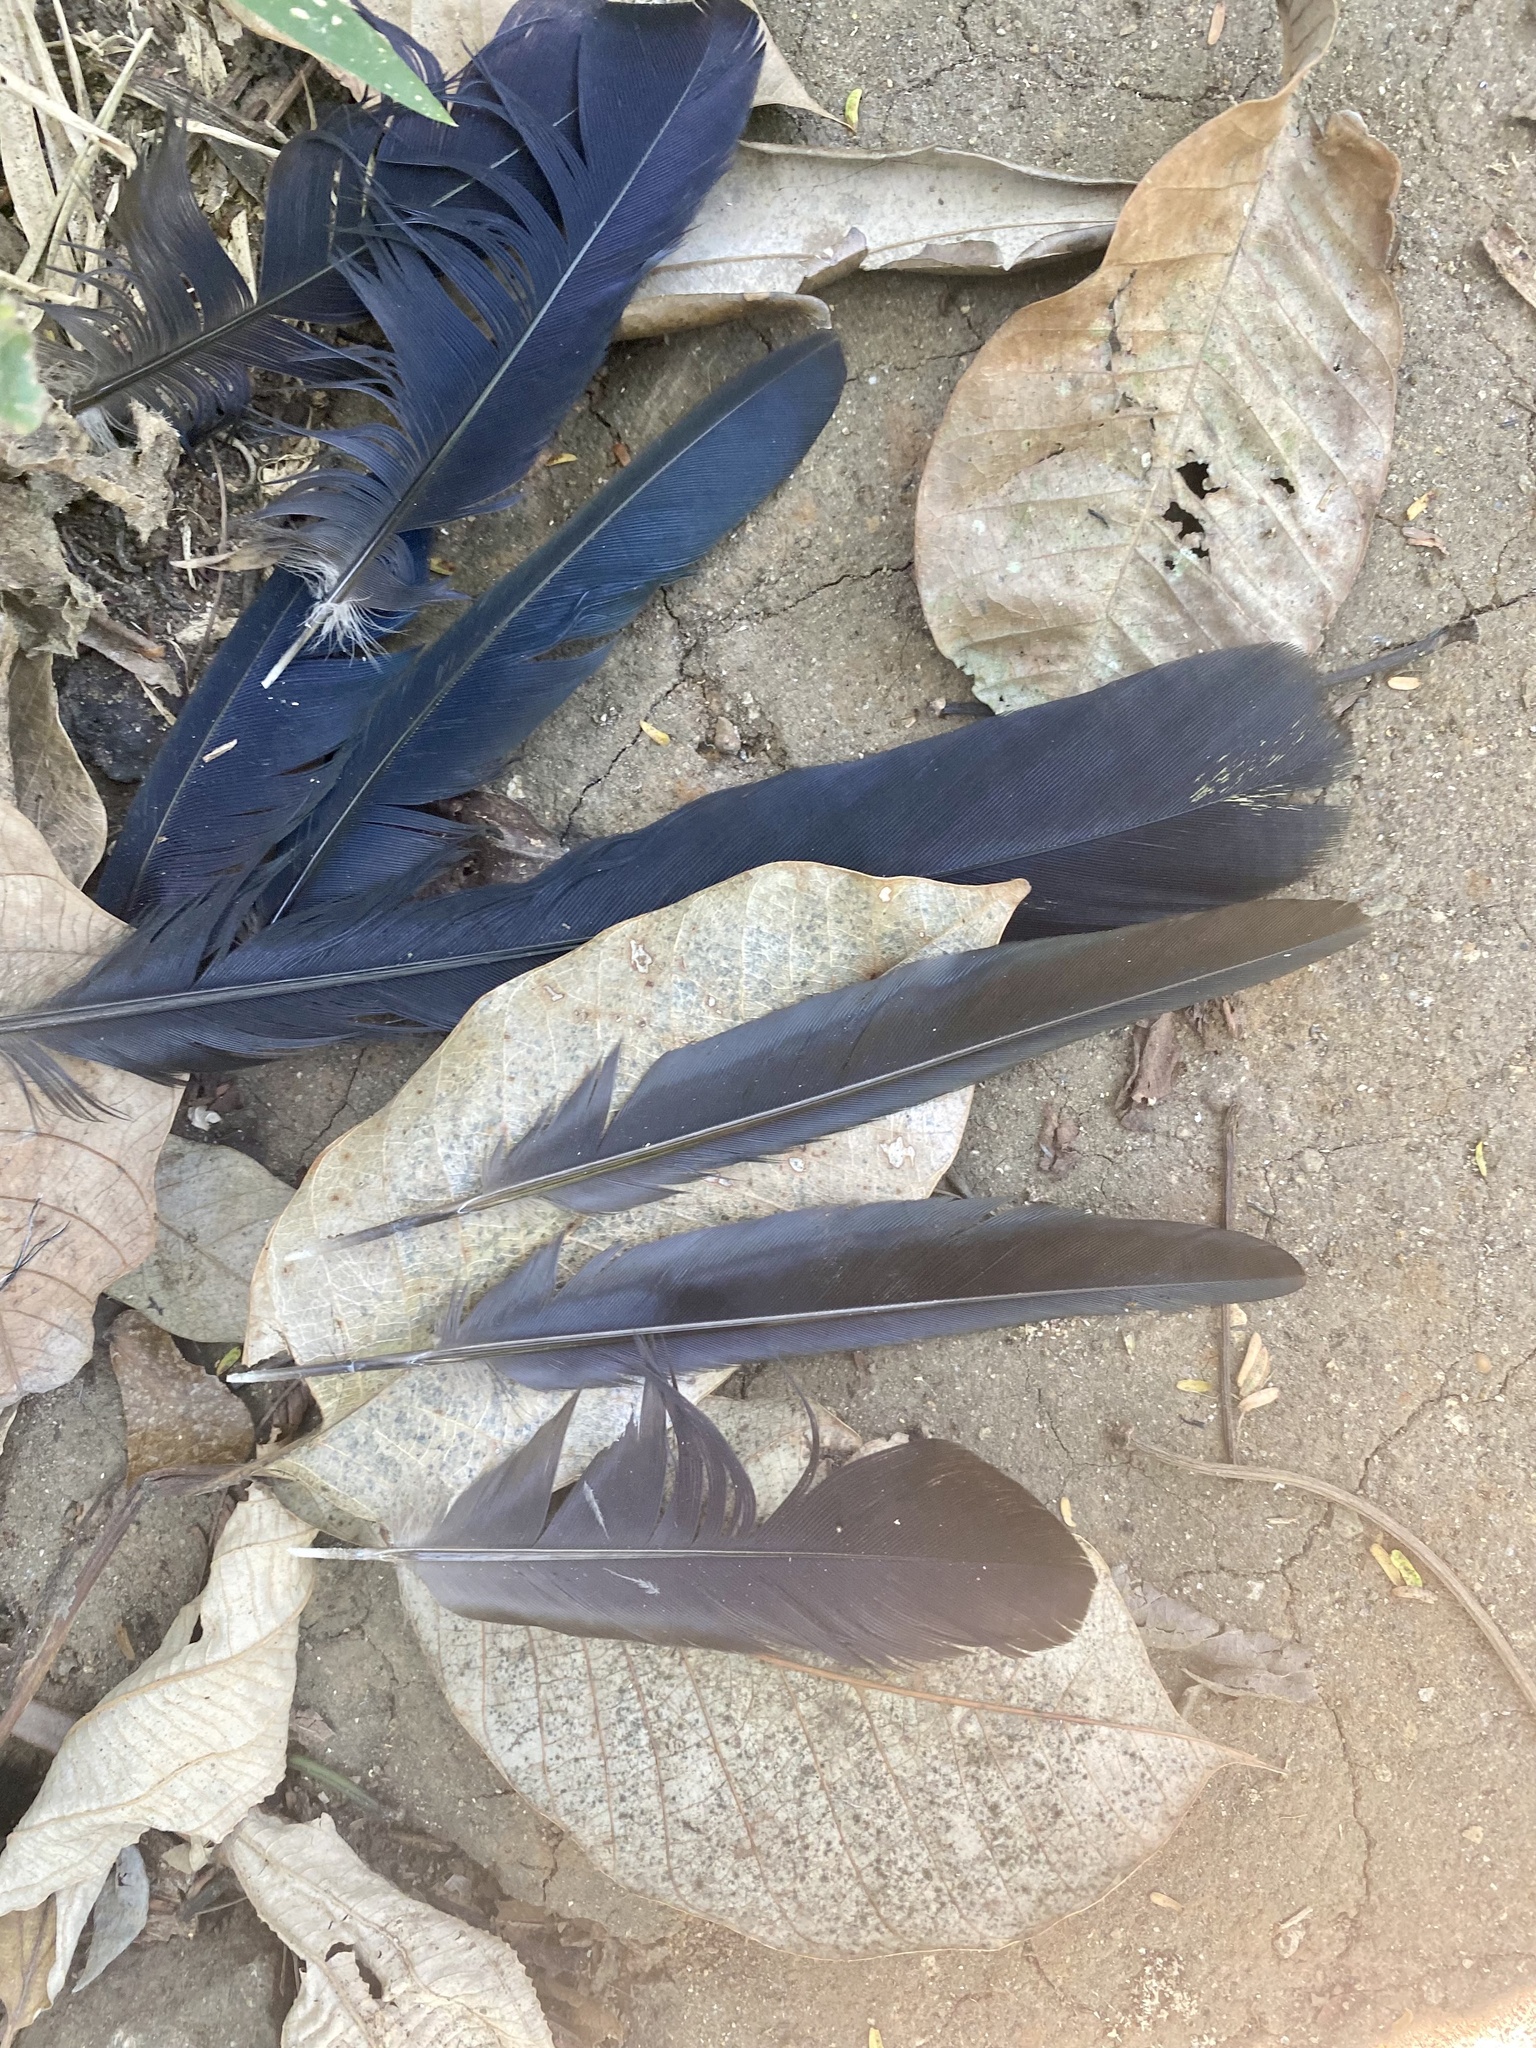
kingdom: Animalia
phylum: Chordata
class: Aves
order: Cuculiformes
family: Cuculidae
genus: Crotophaga
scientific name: Crotophaga sulcirostris
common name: Groove-billed ani
